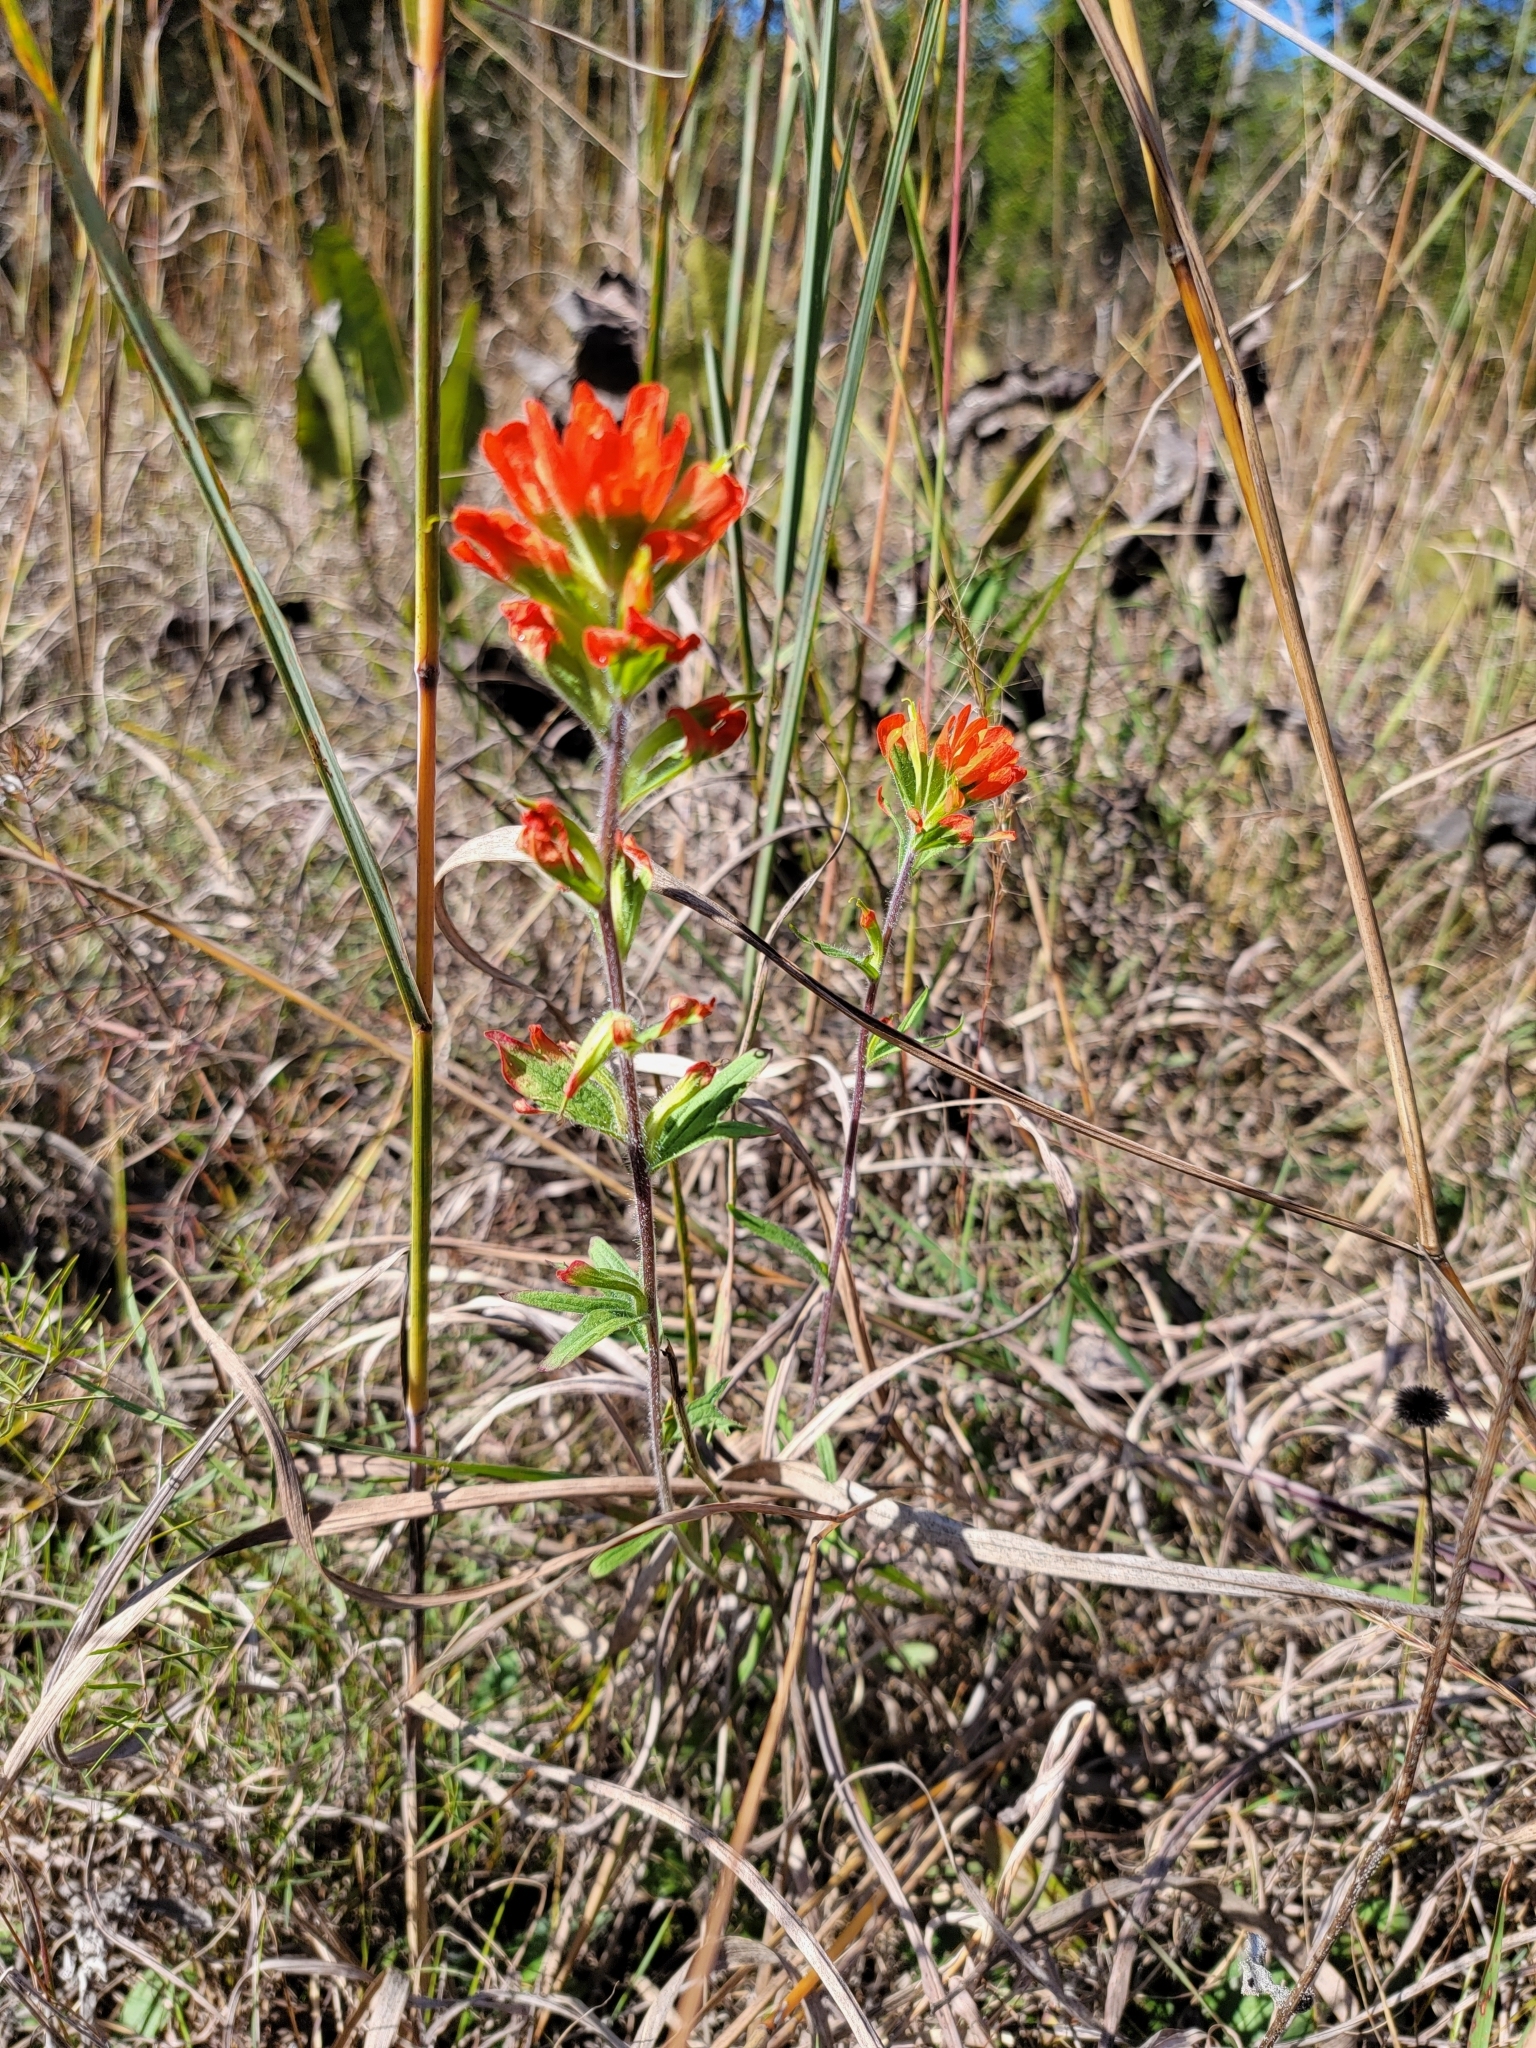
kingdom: Plantae
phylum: Tracheophyta
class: Magnoliopsida
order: Lamiales
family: Orobanchaceae
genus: Castilleja
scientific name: Castilleja coccinea
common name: Scarlet paintbrush
